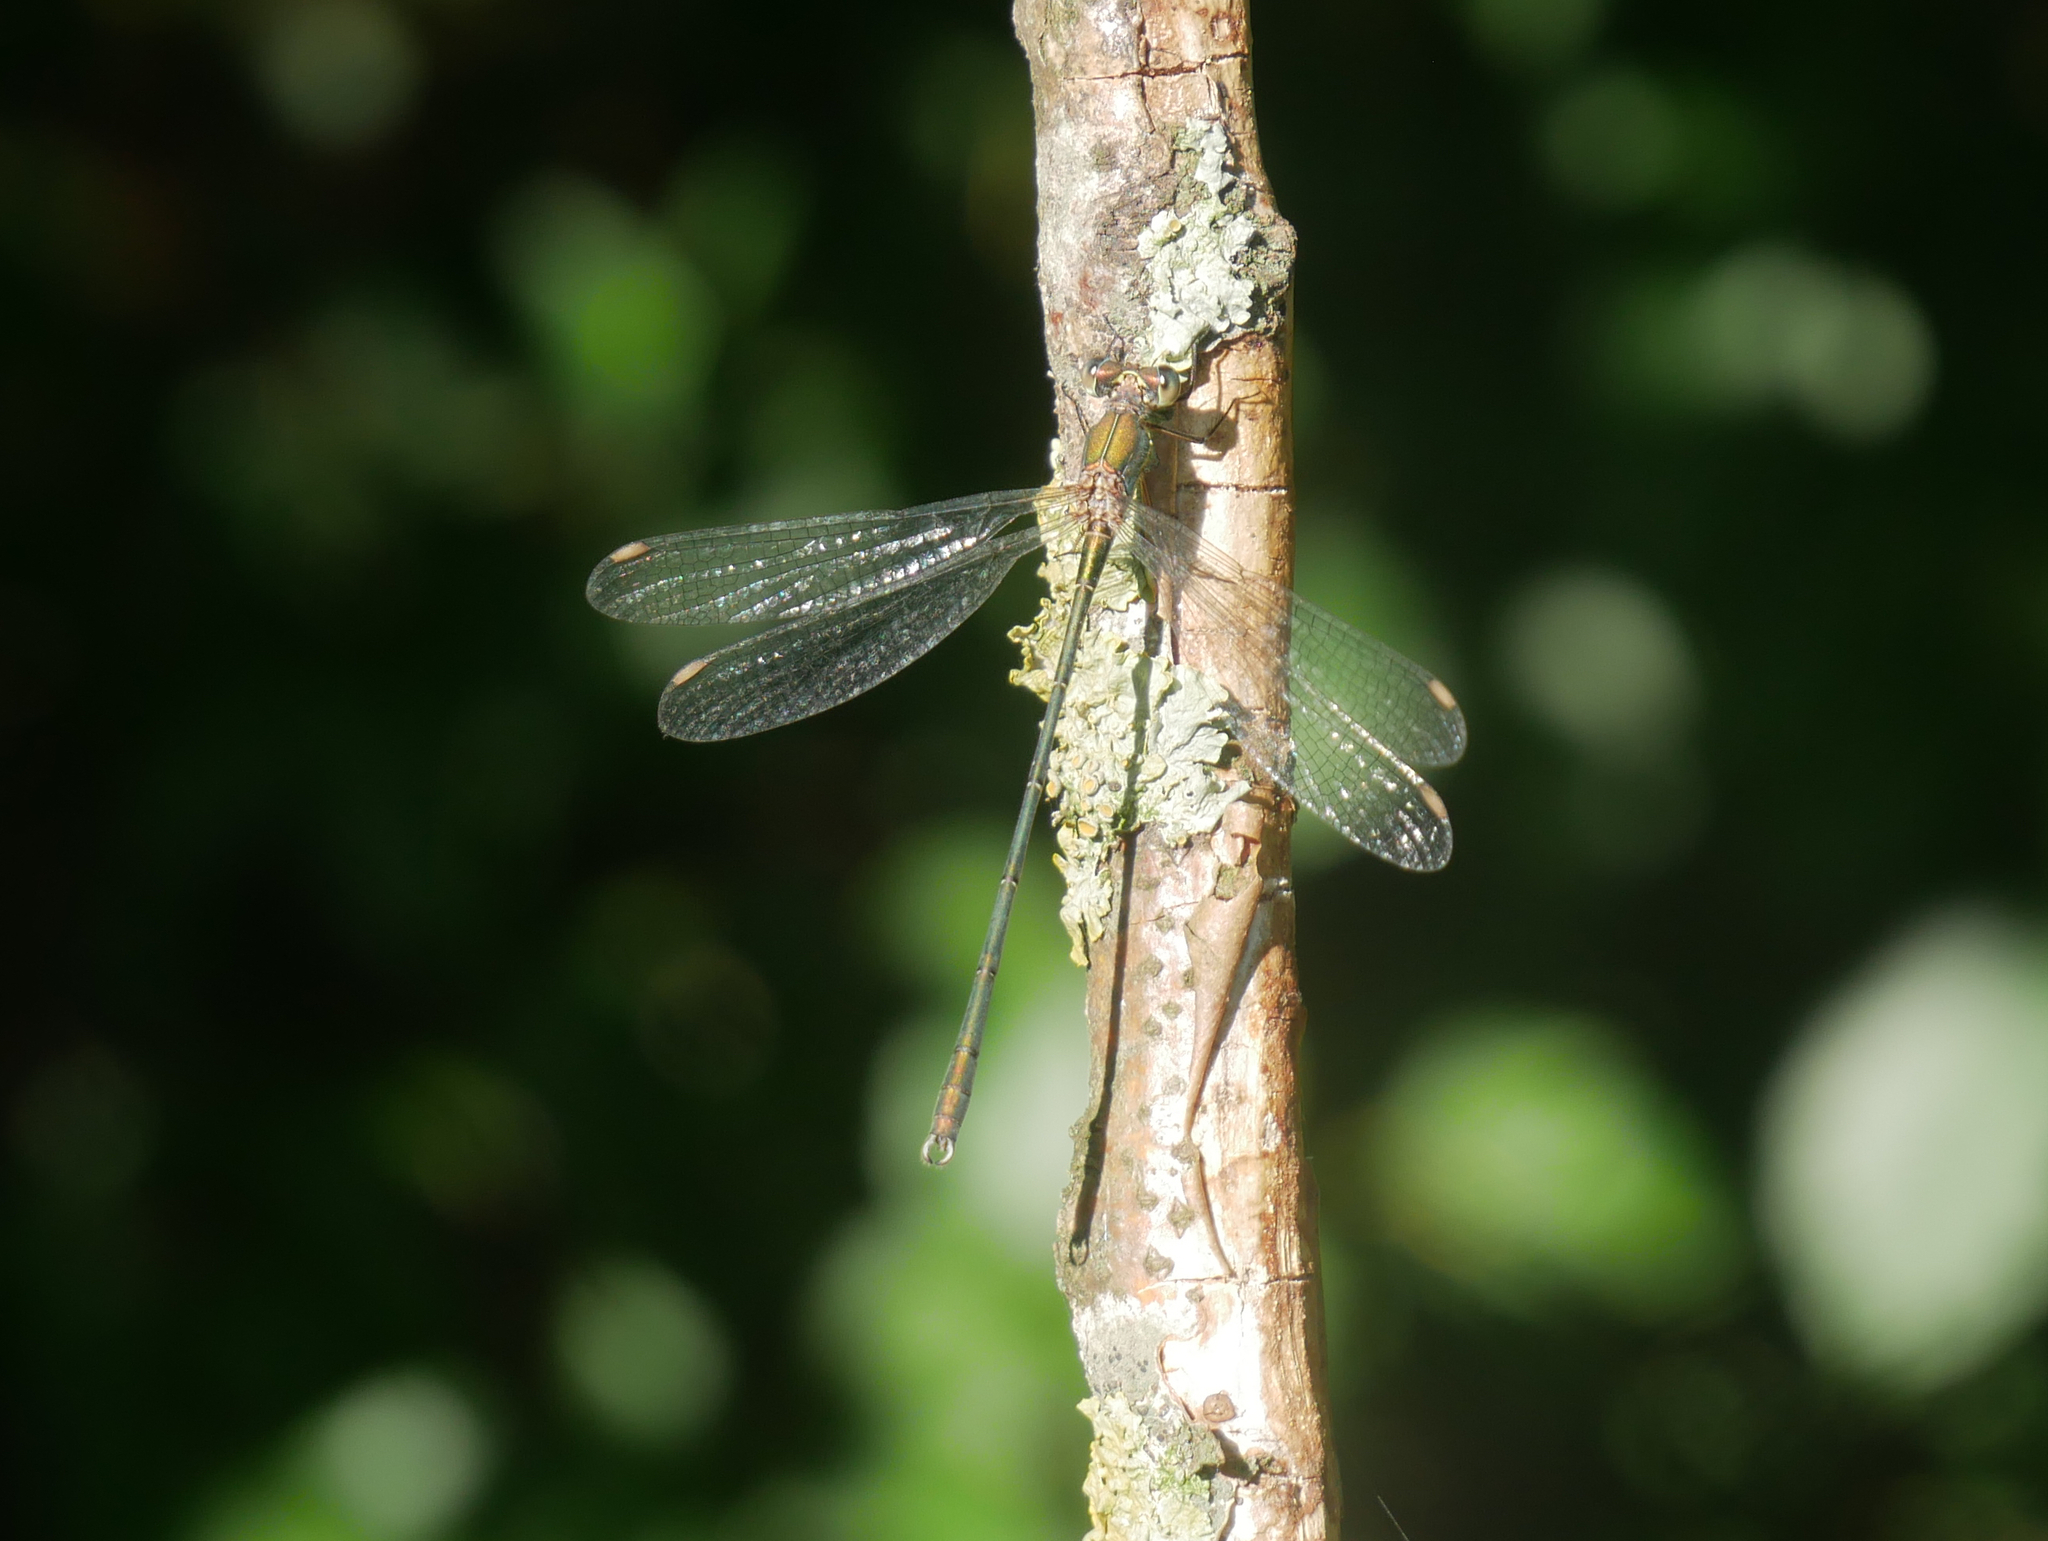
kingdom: Animalia
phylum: Arthropoda
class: Insecta
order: Odonata
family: Lestidae
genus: Chalcolestes
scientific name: Chalcolestes viridis
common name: Green emerald damselfly
